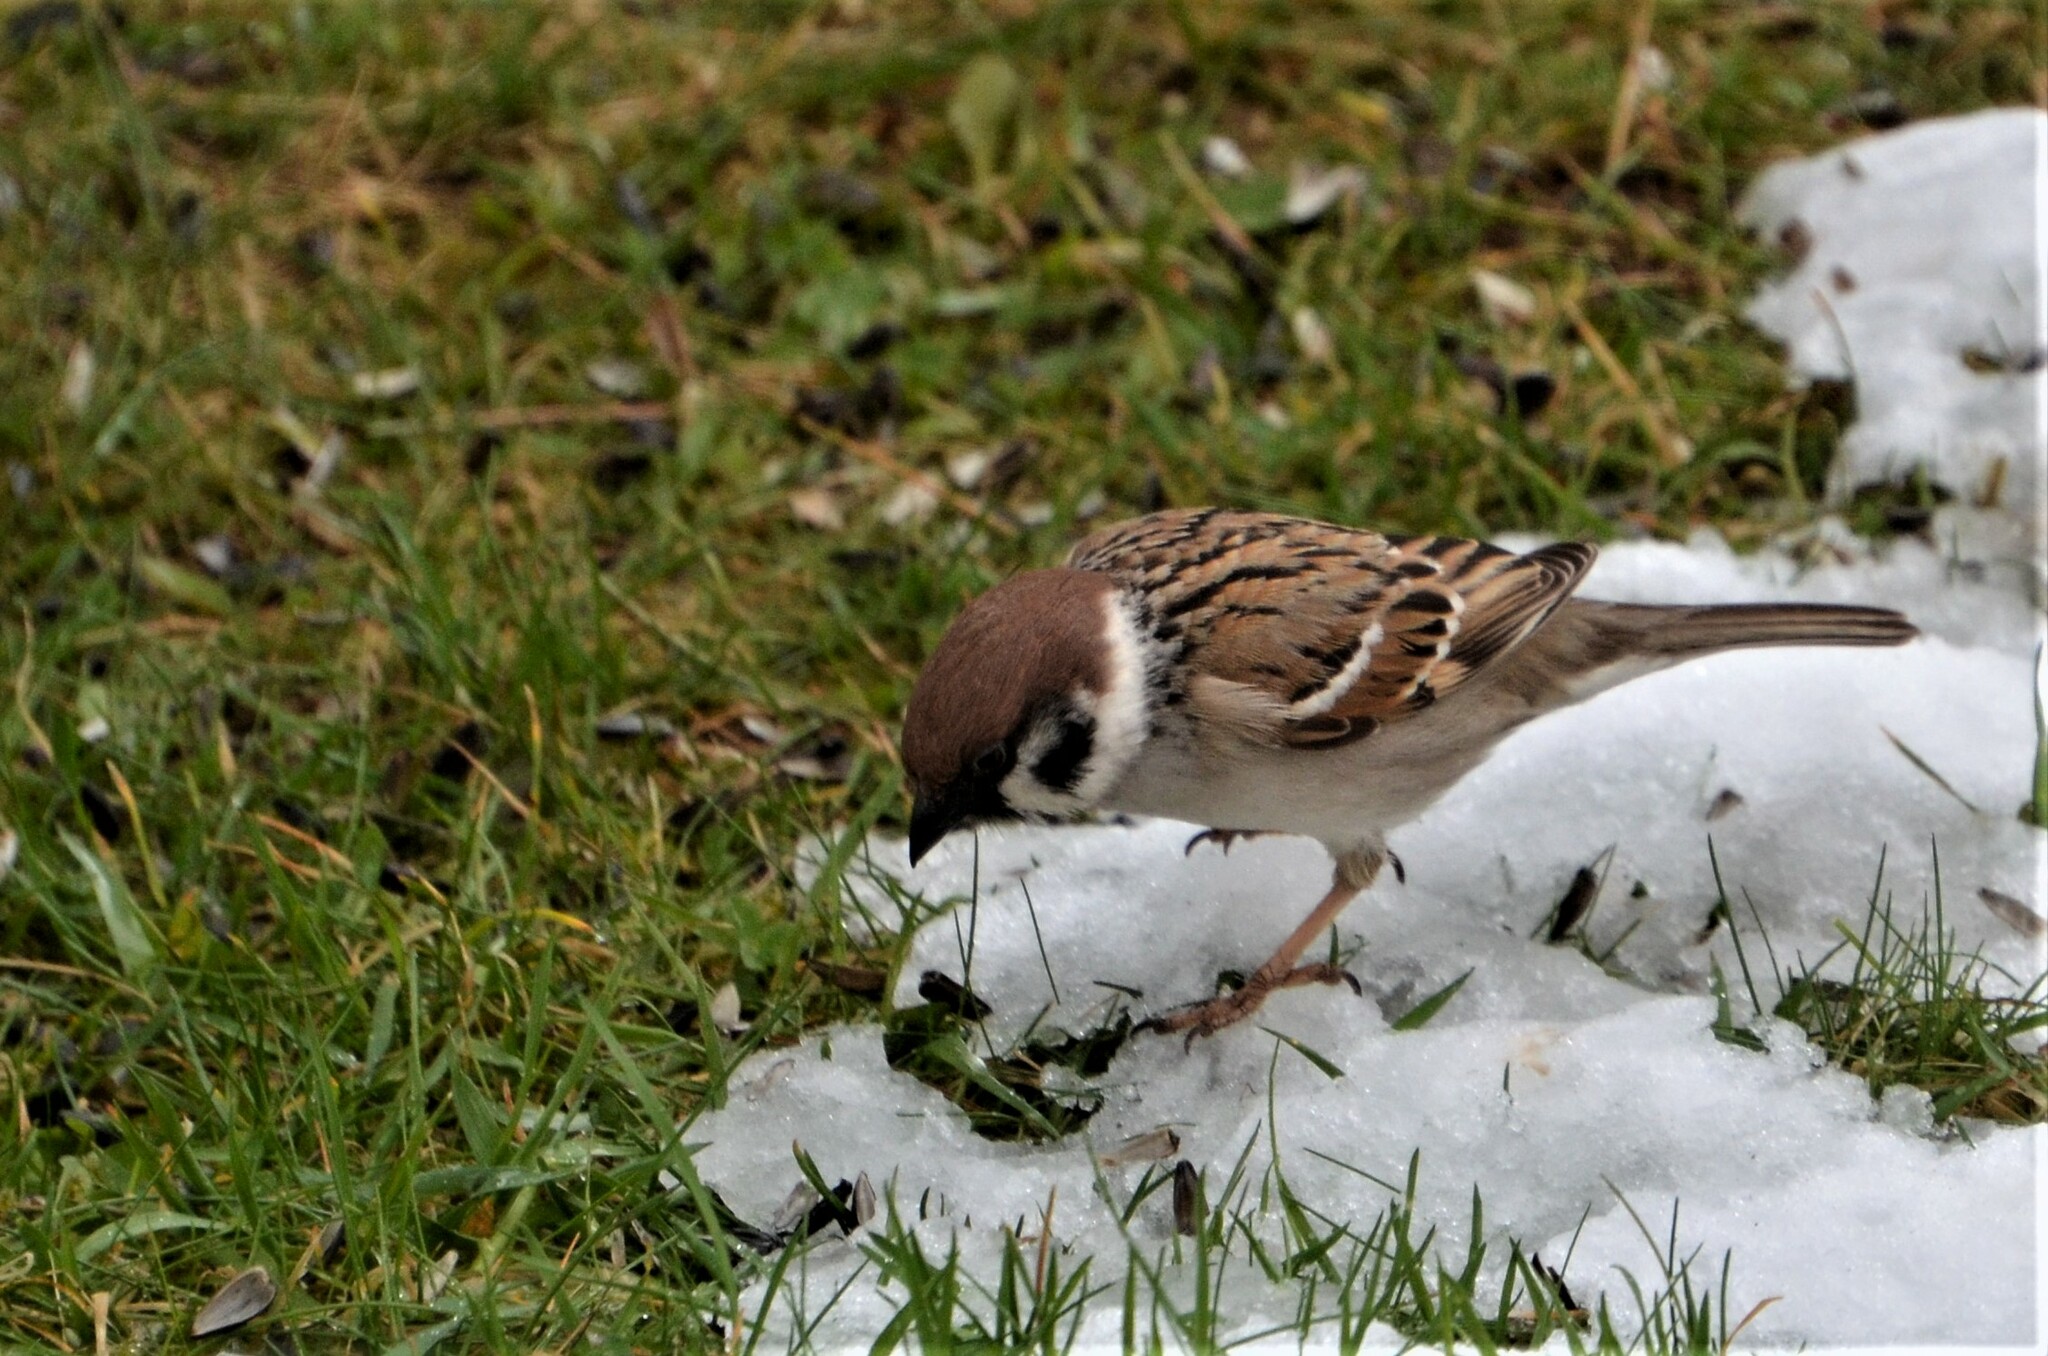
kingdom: Animalia
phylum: Chordata
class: Aves
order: Passeriformes
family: Passeridae
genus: Passer
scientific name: Passer montanus
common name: Eurasian tree sparrow
